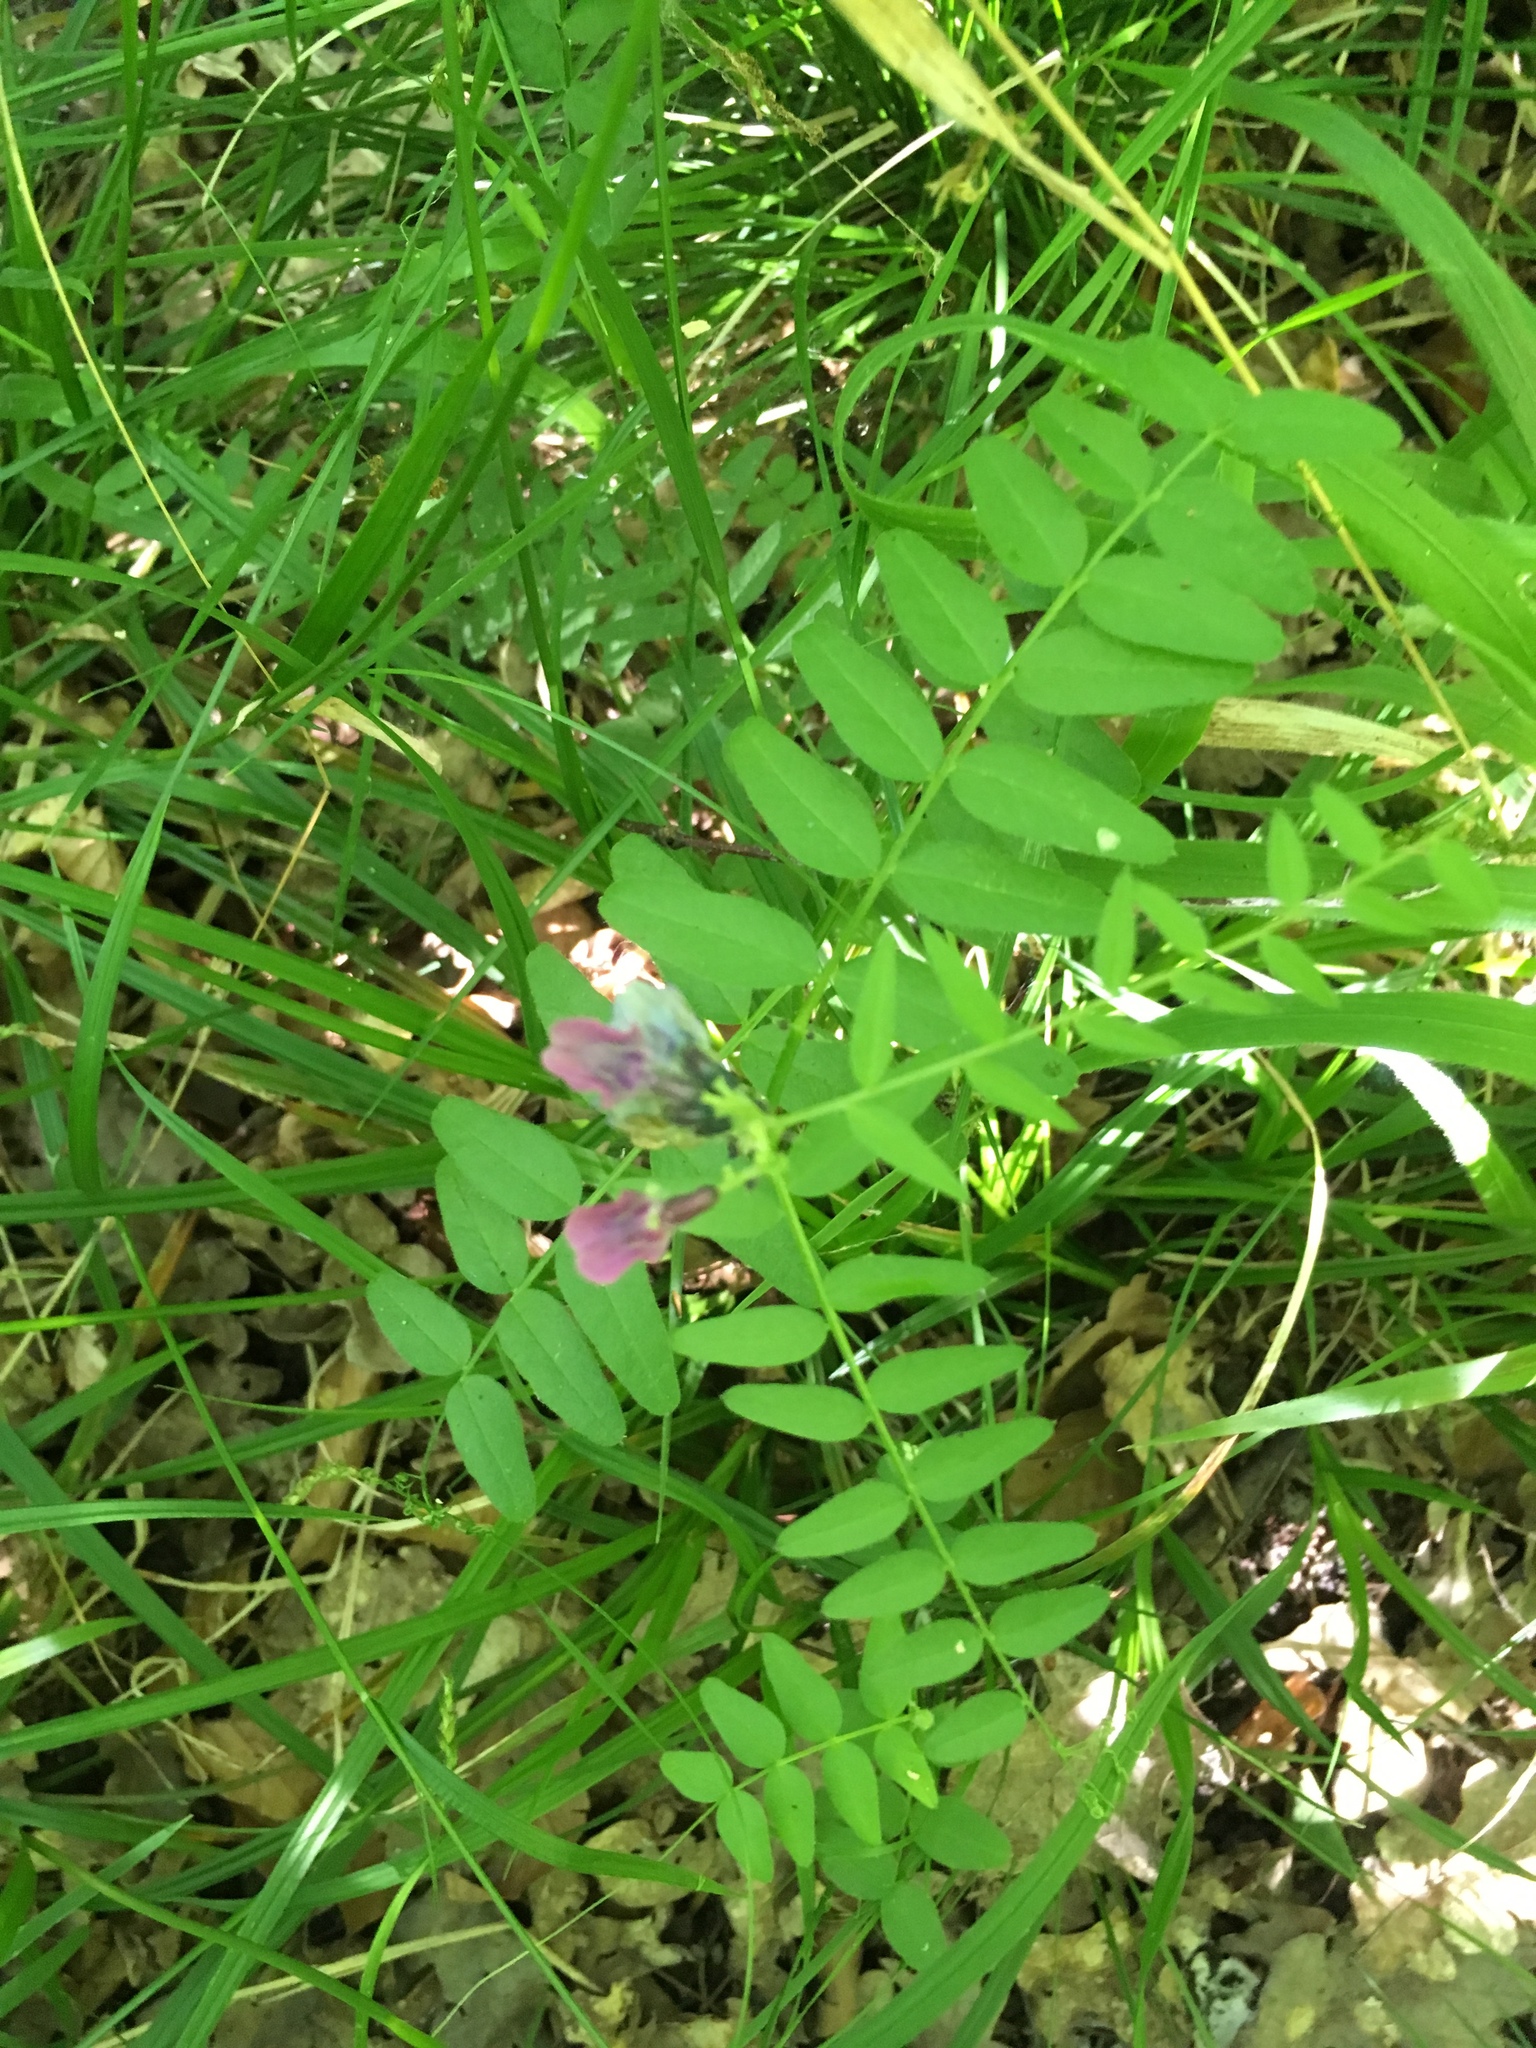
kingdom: Plantae
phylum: Tracheophyta
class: Magnoliopsida
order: Fabales
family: Fabaceae
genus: Vicia
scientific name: Vicia sepium
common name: Bush vetch
